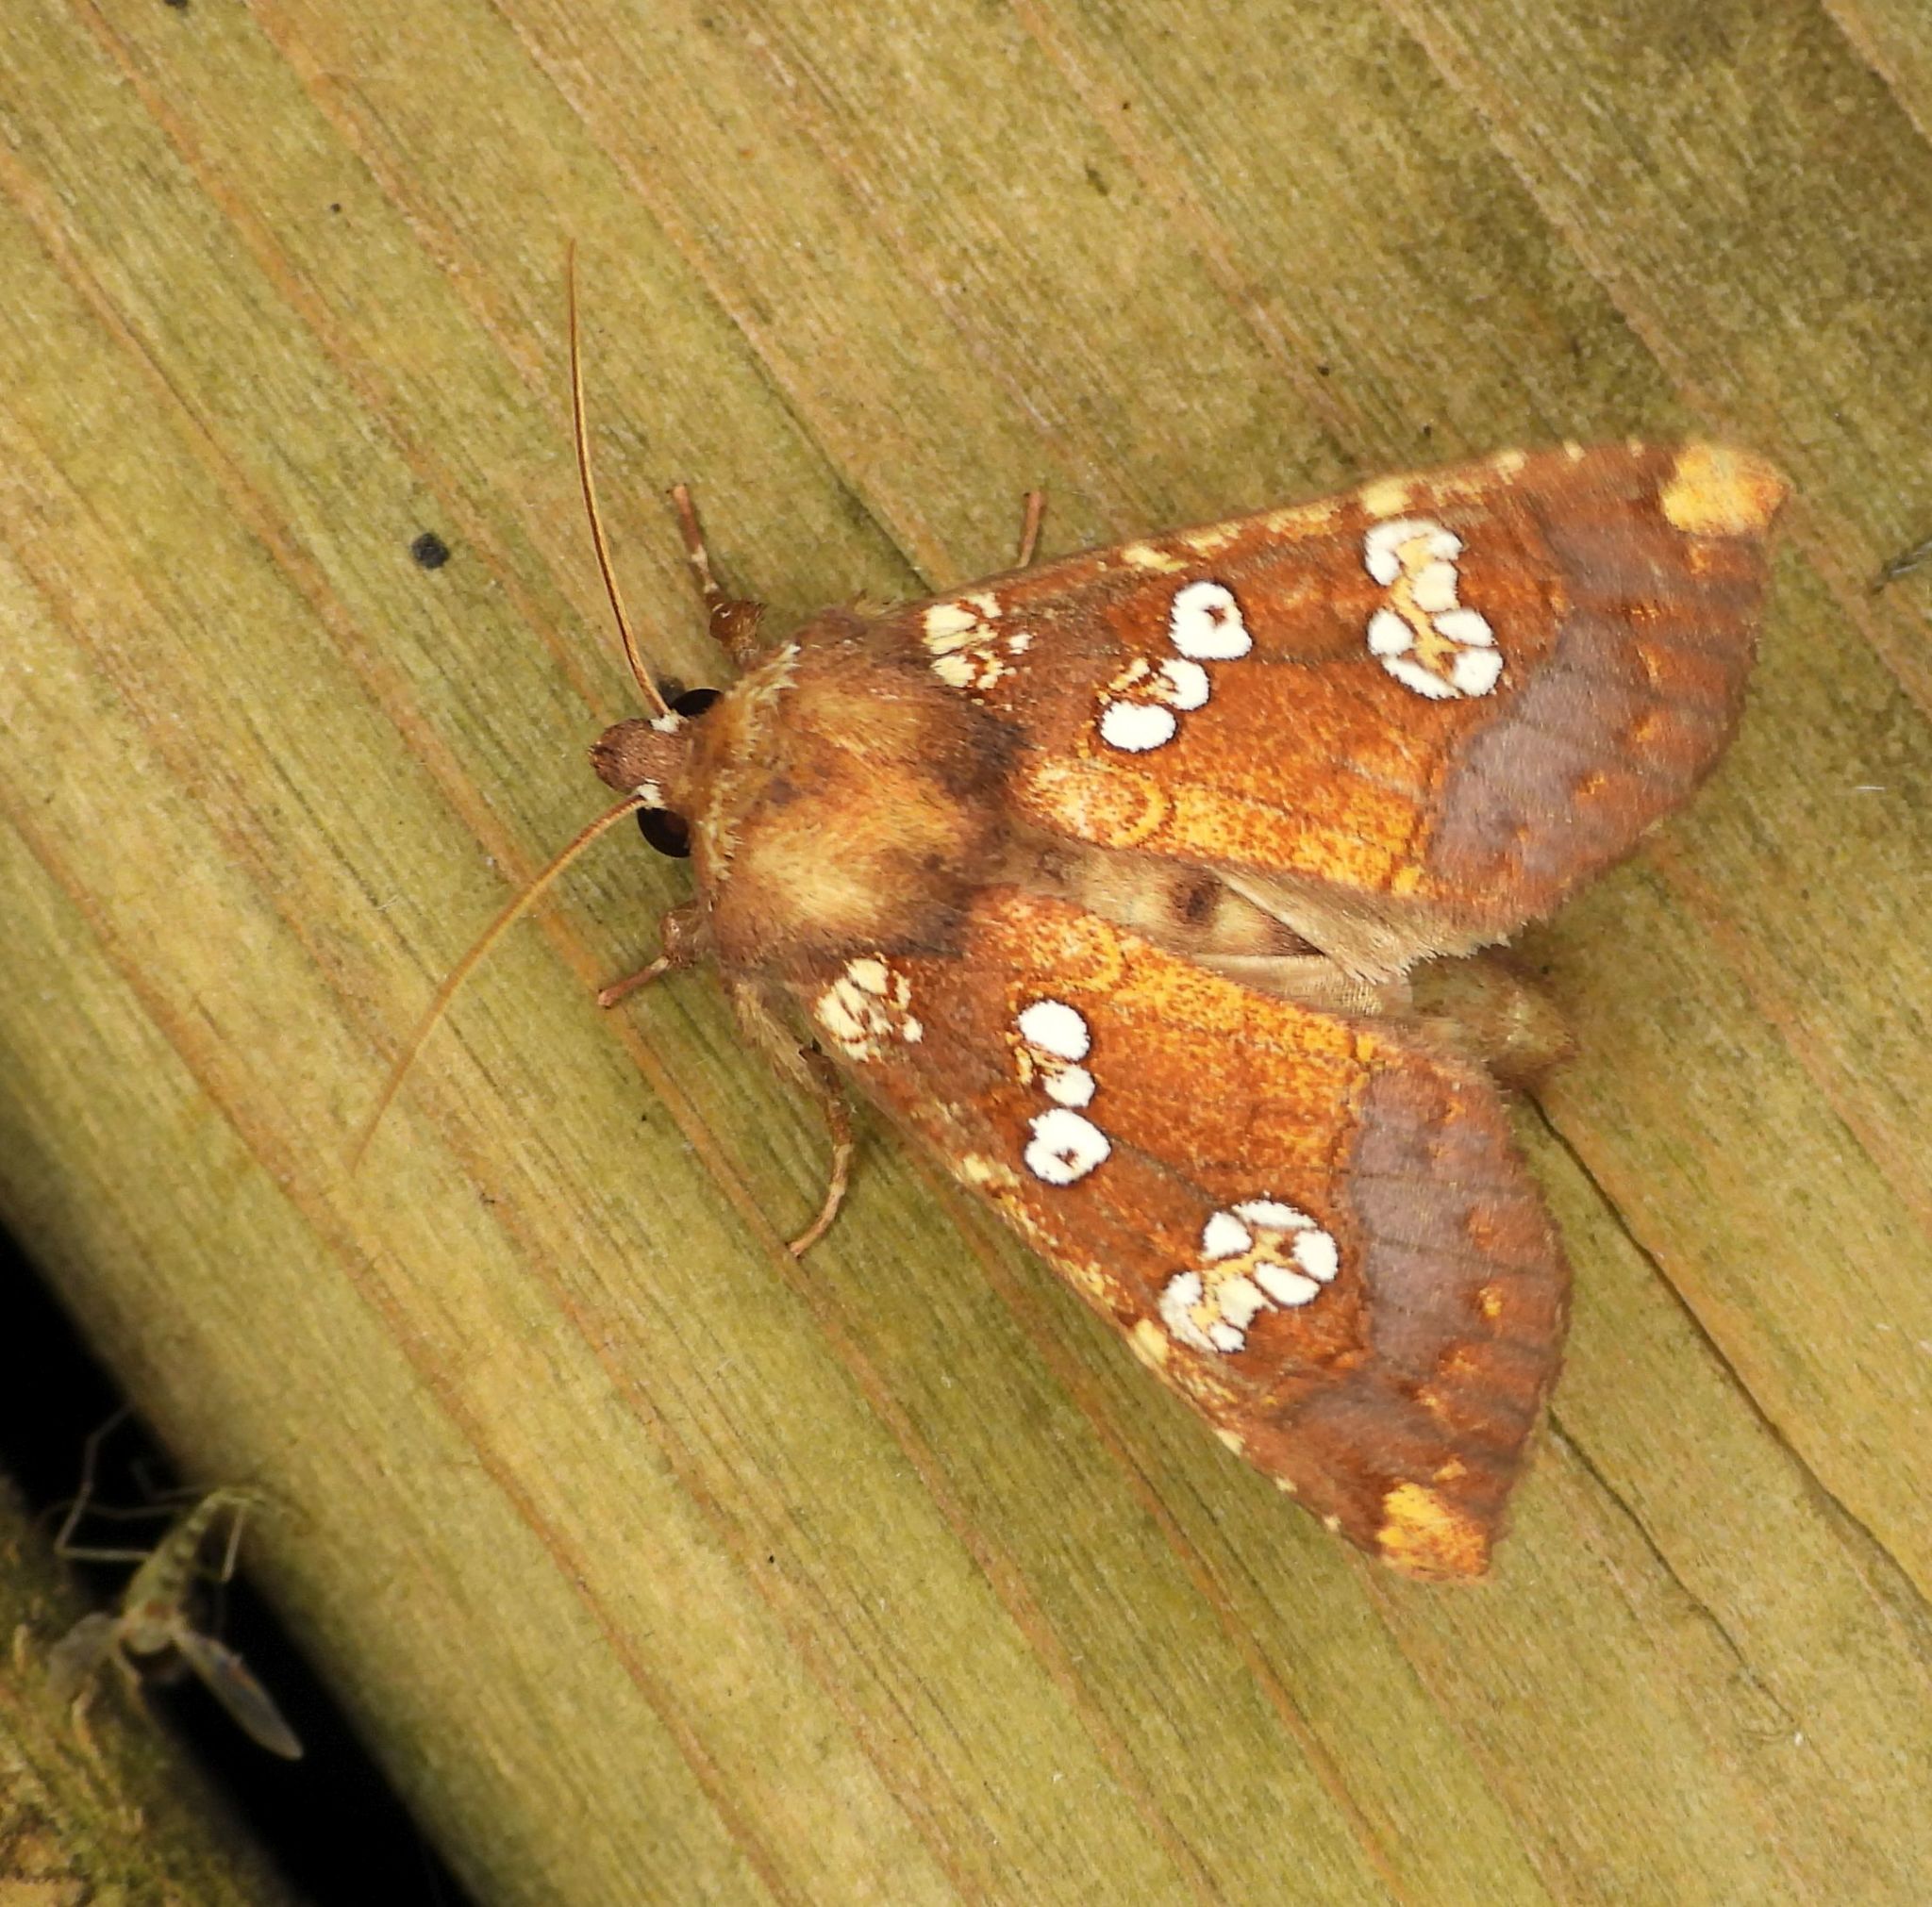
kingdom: Animalia
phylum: Arthropoda
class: Insecta
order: Lepidoptera
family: Noctuidae
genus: Papaipema
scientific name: Papaipema insulidens
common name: Ragwort stem borer moth
